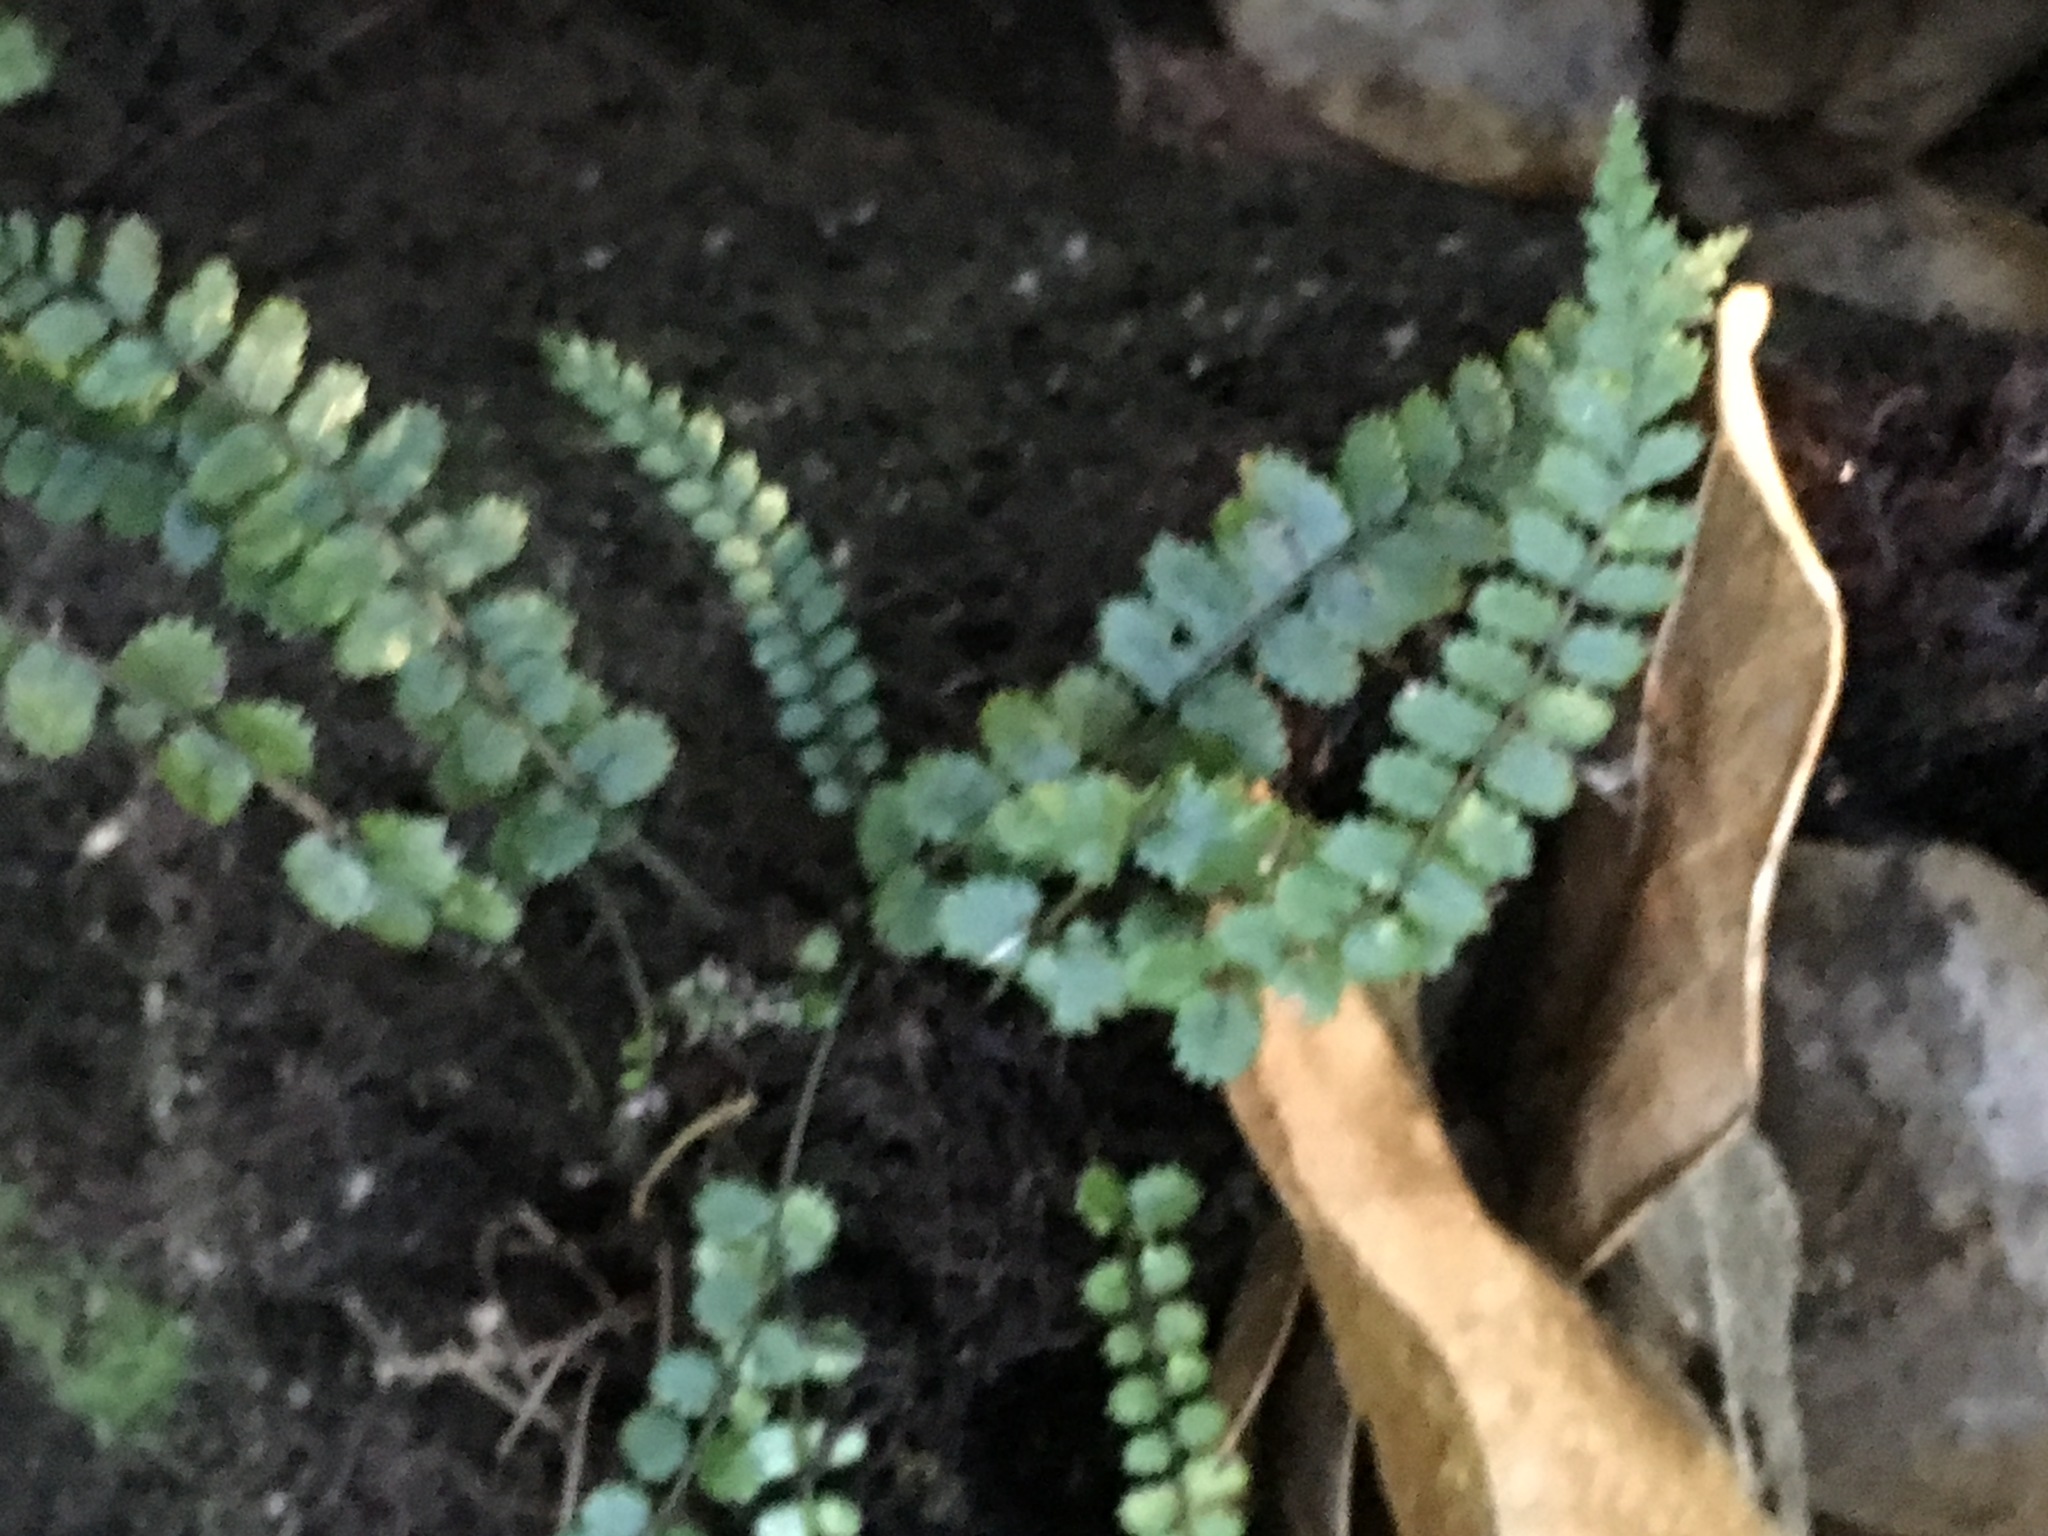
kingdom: Plantae
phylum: Tracheophyta
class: Polypodiopsida
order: Polypodiales
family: Blechnaceae
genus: Icarus
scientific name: Icarus filiformis
